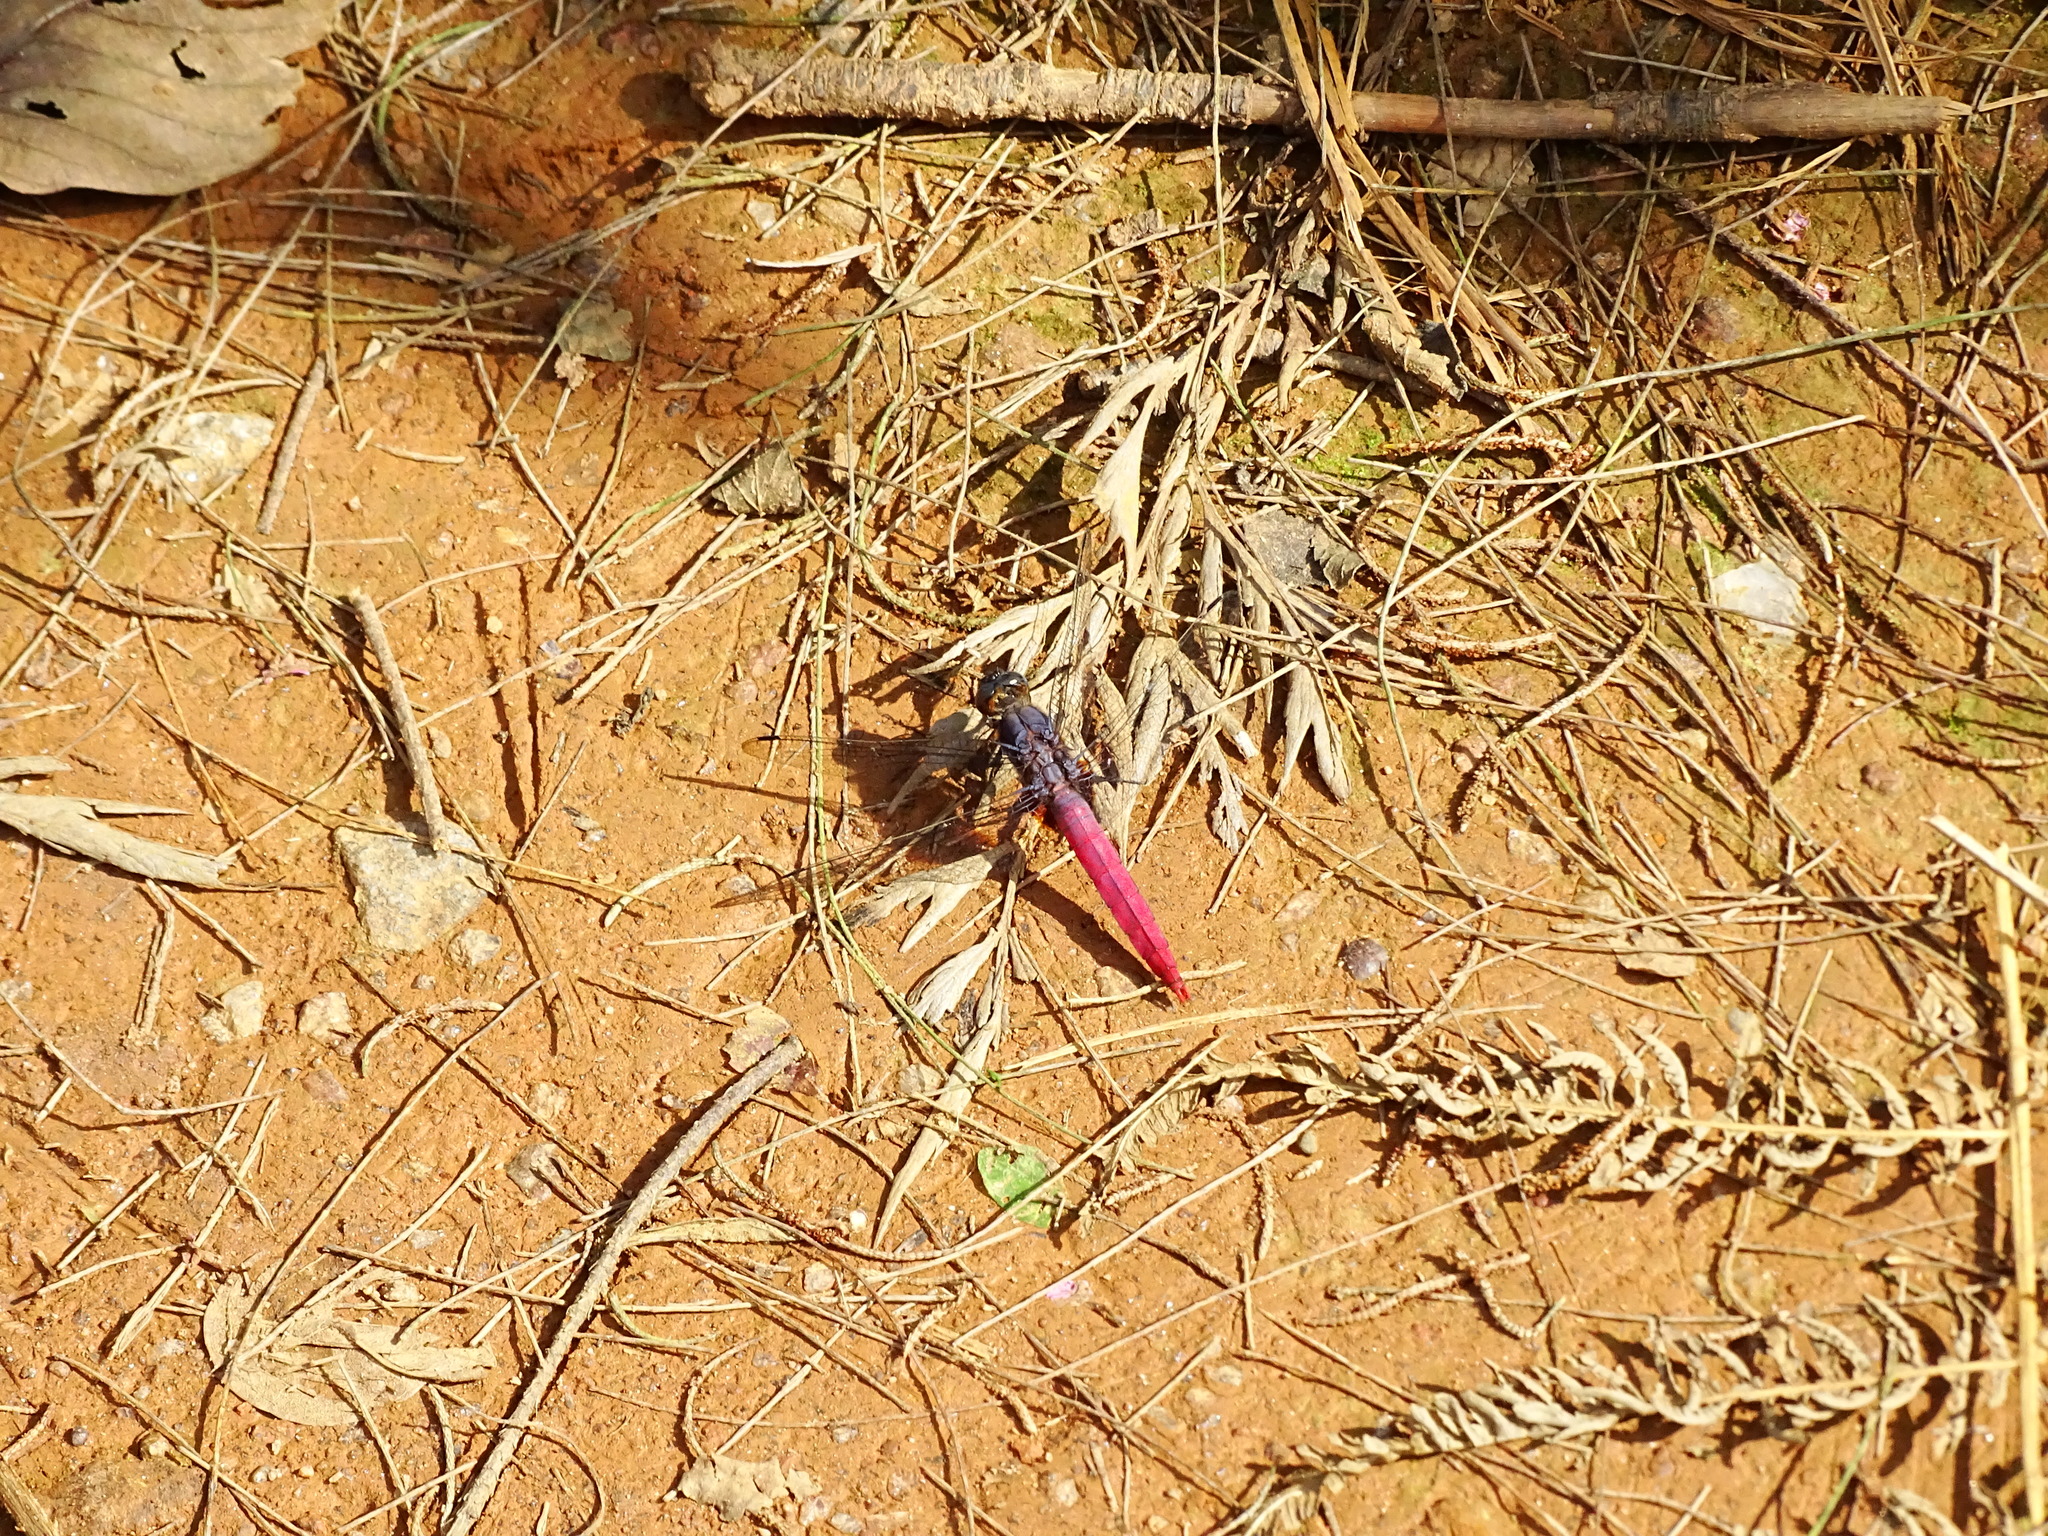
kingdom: Animalia
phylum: Arthropoda
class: Insecta
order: Odonata
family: Libellulidae
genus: Orthetrum
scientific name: Orthetrum pruinosum
